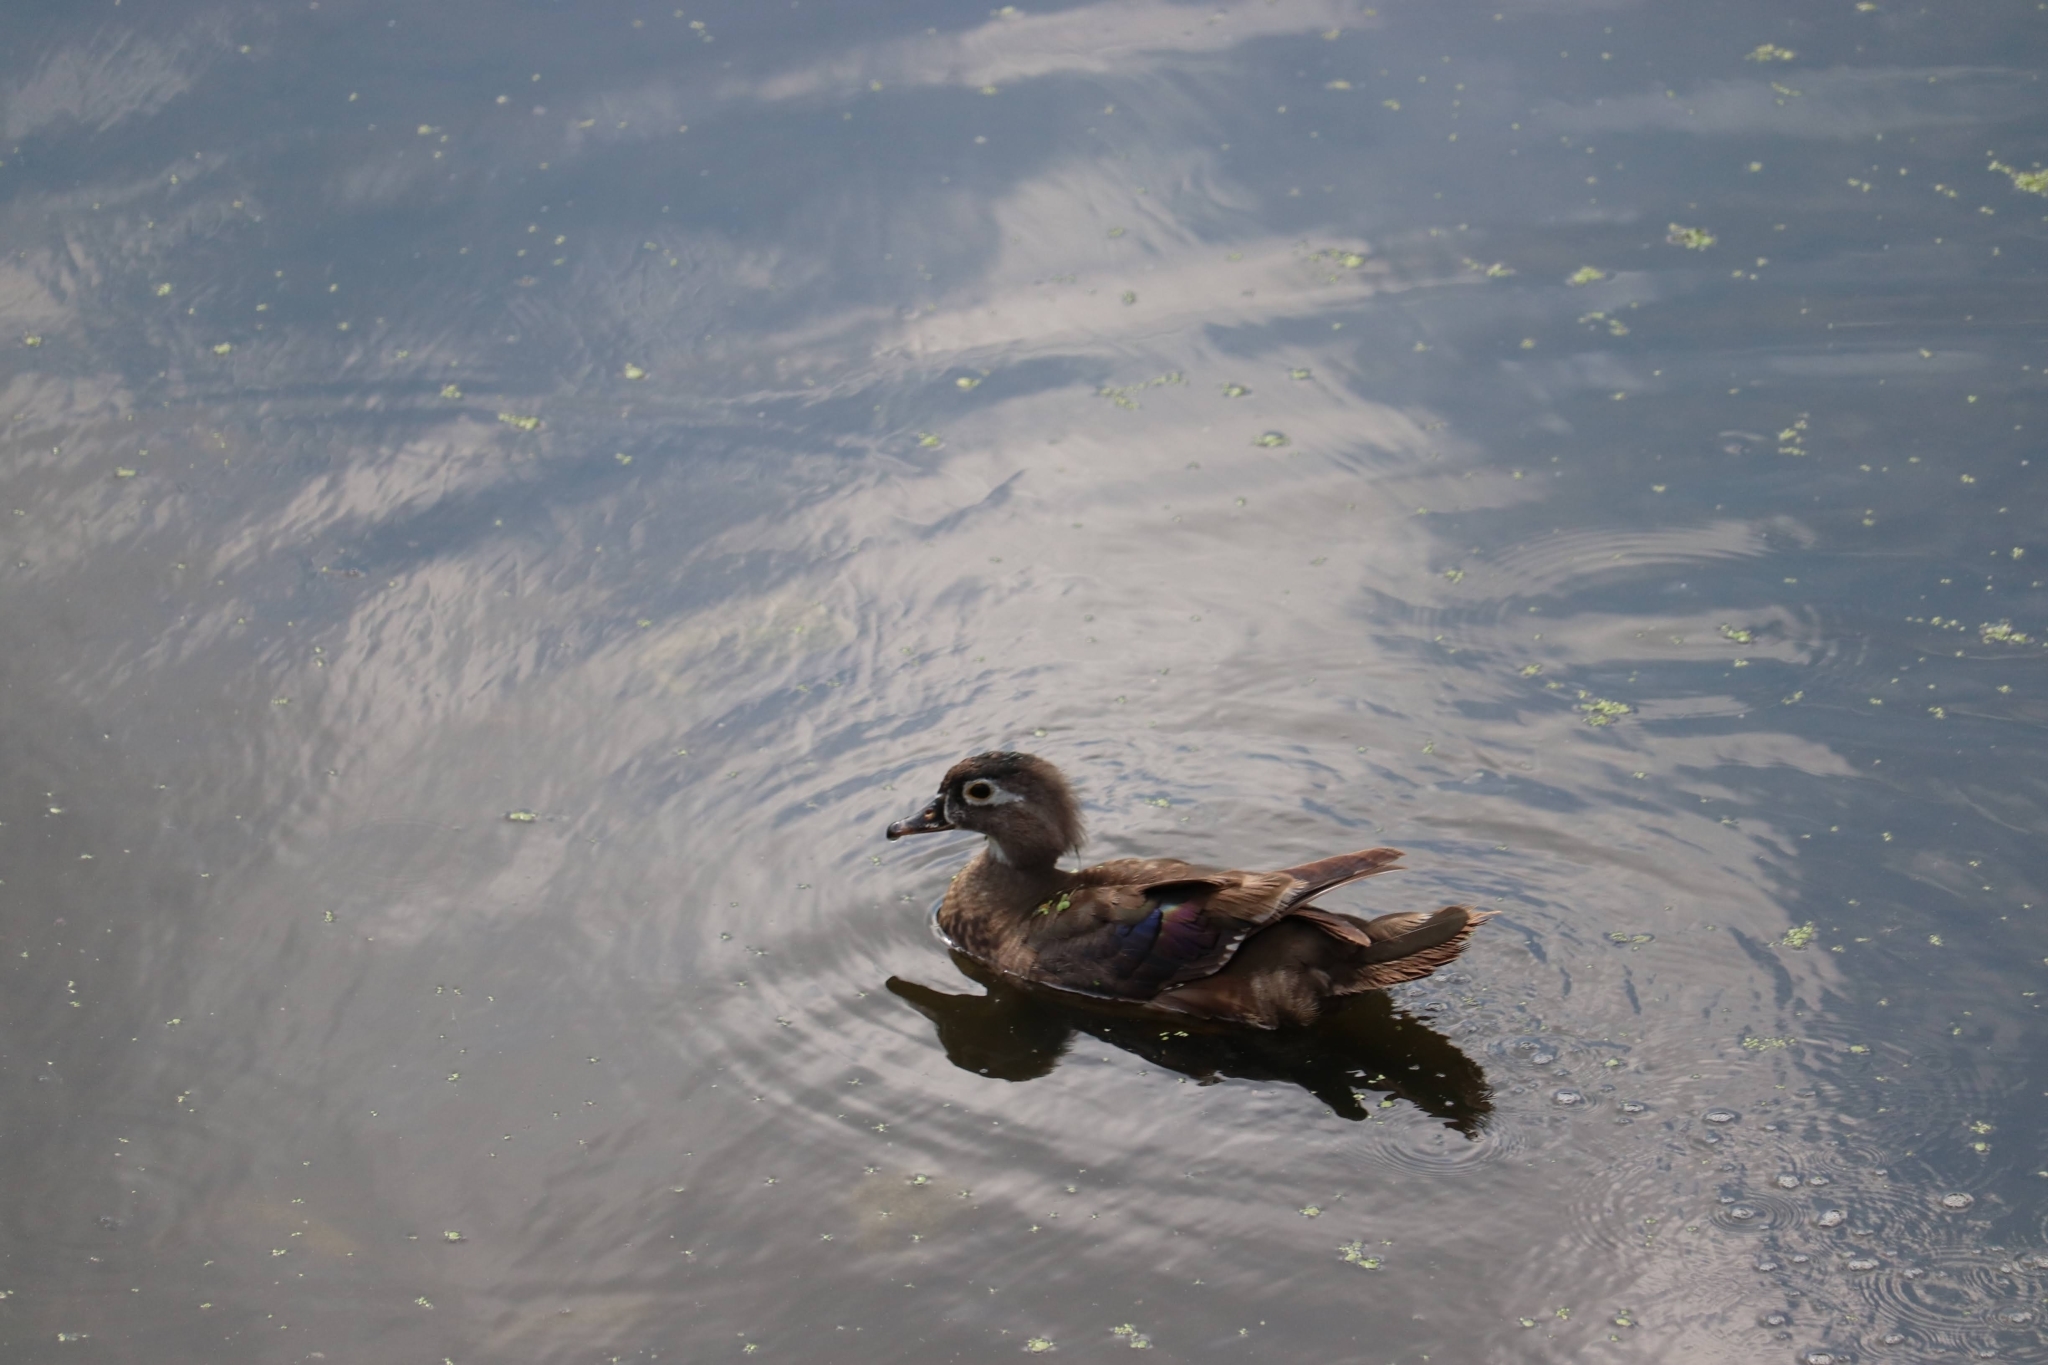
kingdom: Animalia
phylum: Chordata
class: Aves
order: Anseriformes
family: Anatidae
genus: Aix
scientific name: Aix sponsa
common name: Wood duck
